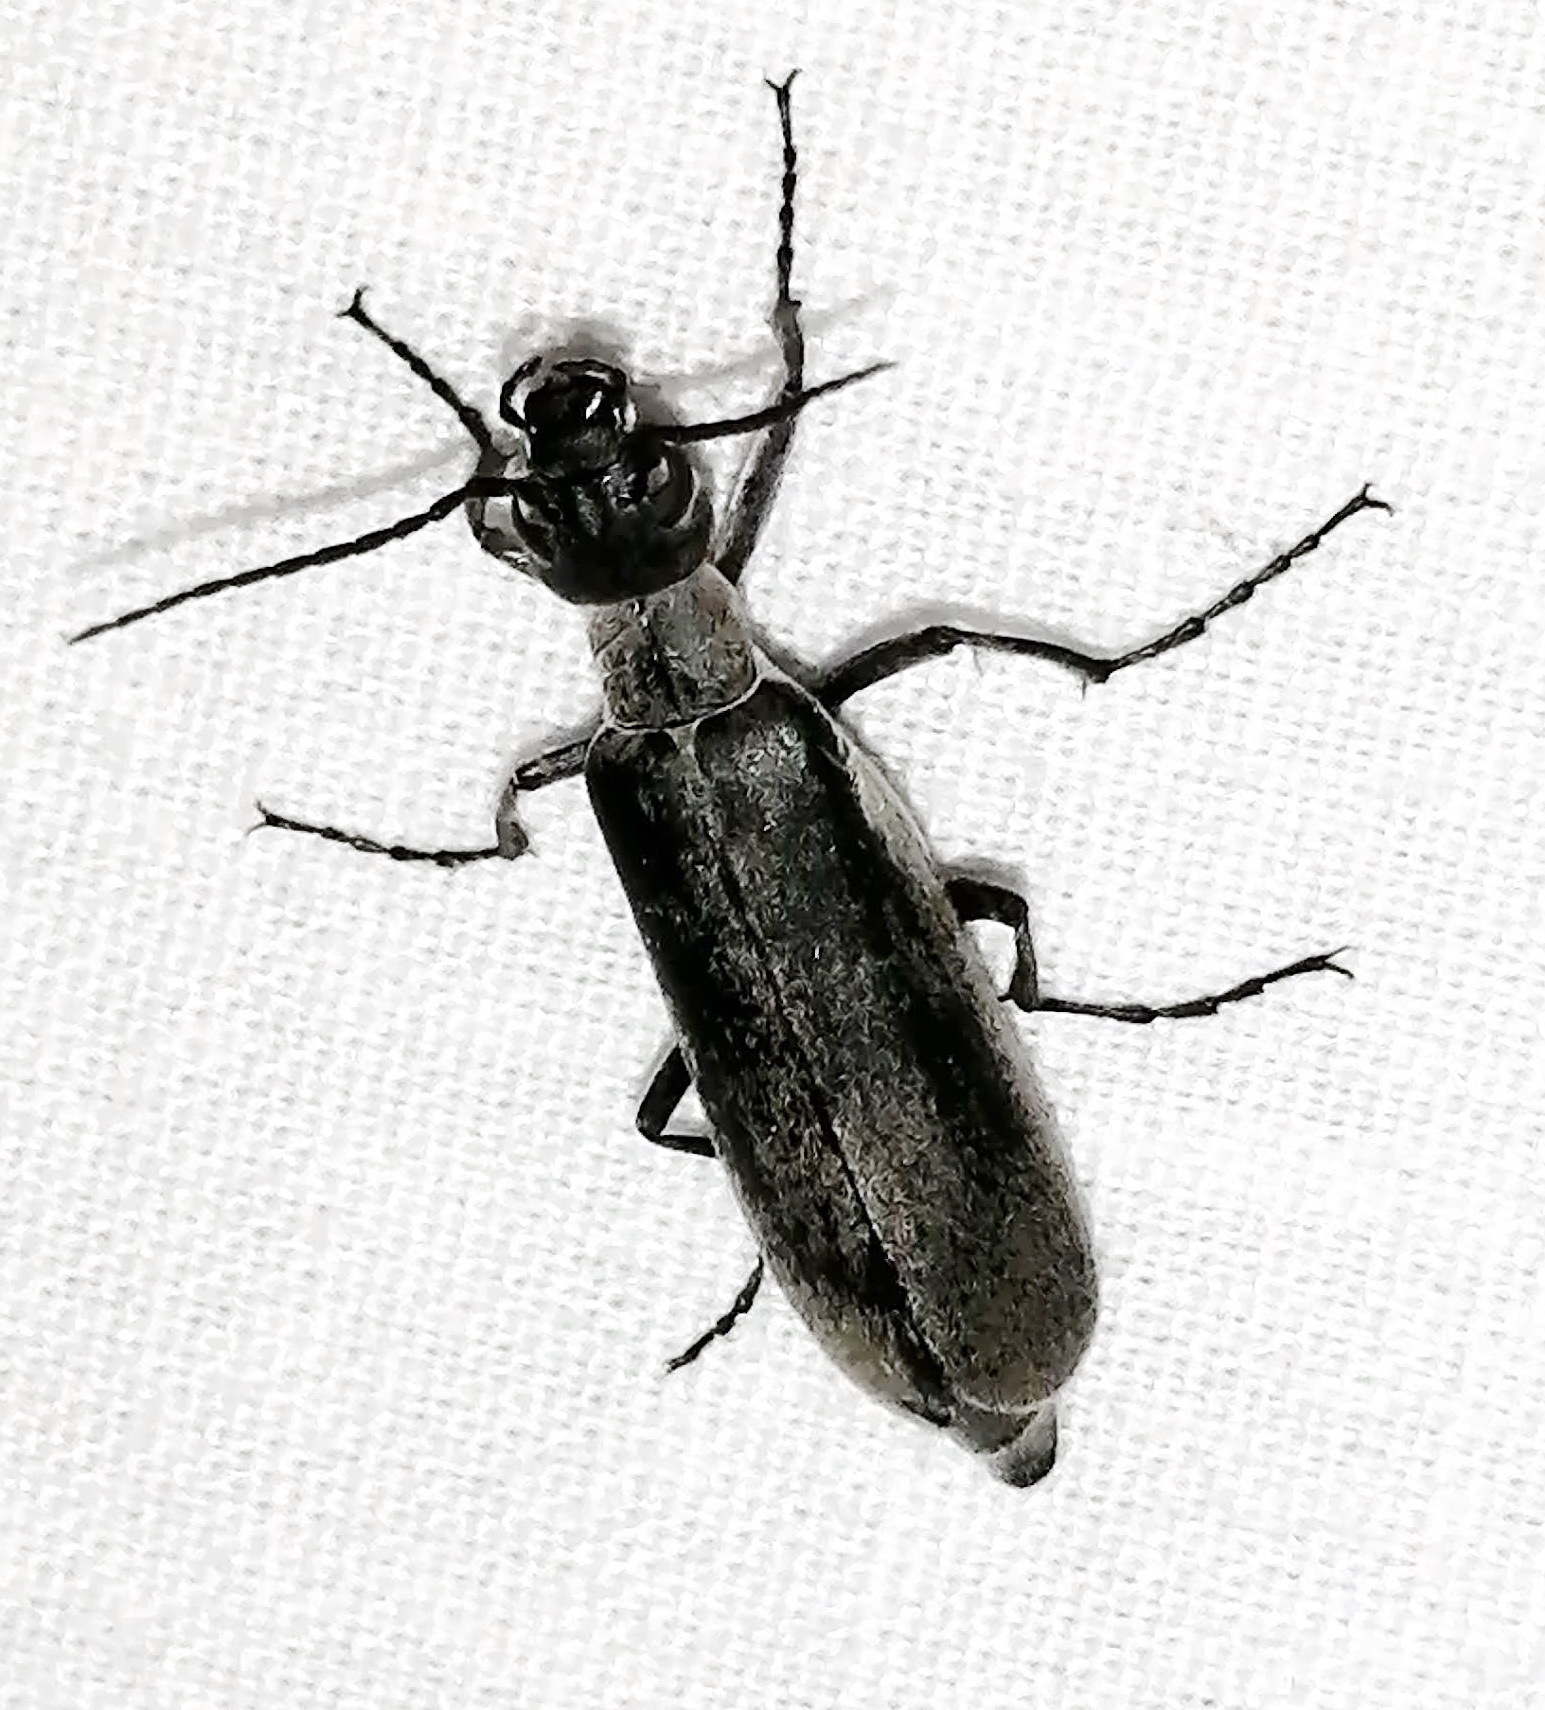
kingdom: Animalia
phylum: Arthropoda
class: Insecta
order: Coleoptera
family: Meloidae
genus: Epicauta
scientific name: Epicauta fabricii
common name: Ashgray blister beetle
